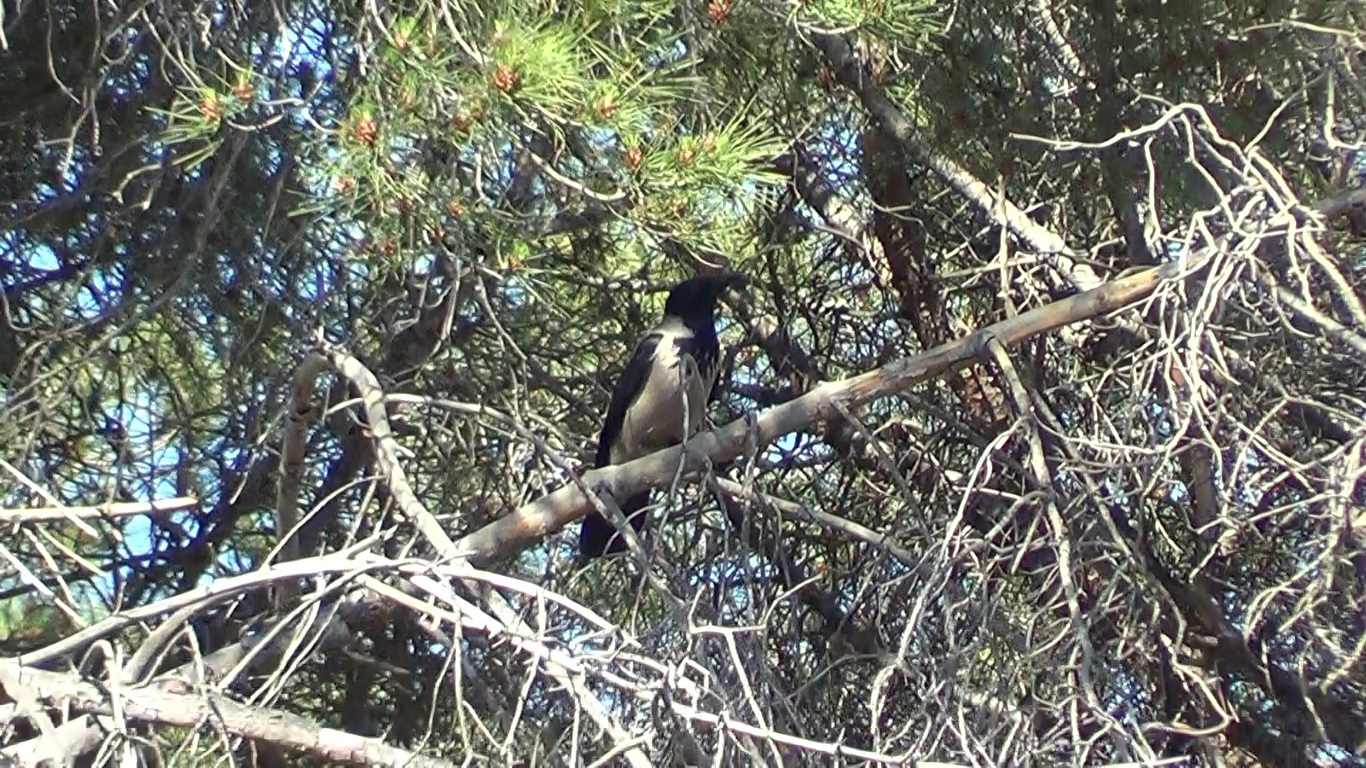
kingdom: Animalia
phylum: Chordata
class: Aves
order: Passeriformes
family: Corvidae
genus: Corvus
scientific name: Corvus cornix
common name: Hooded crow
